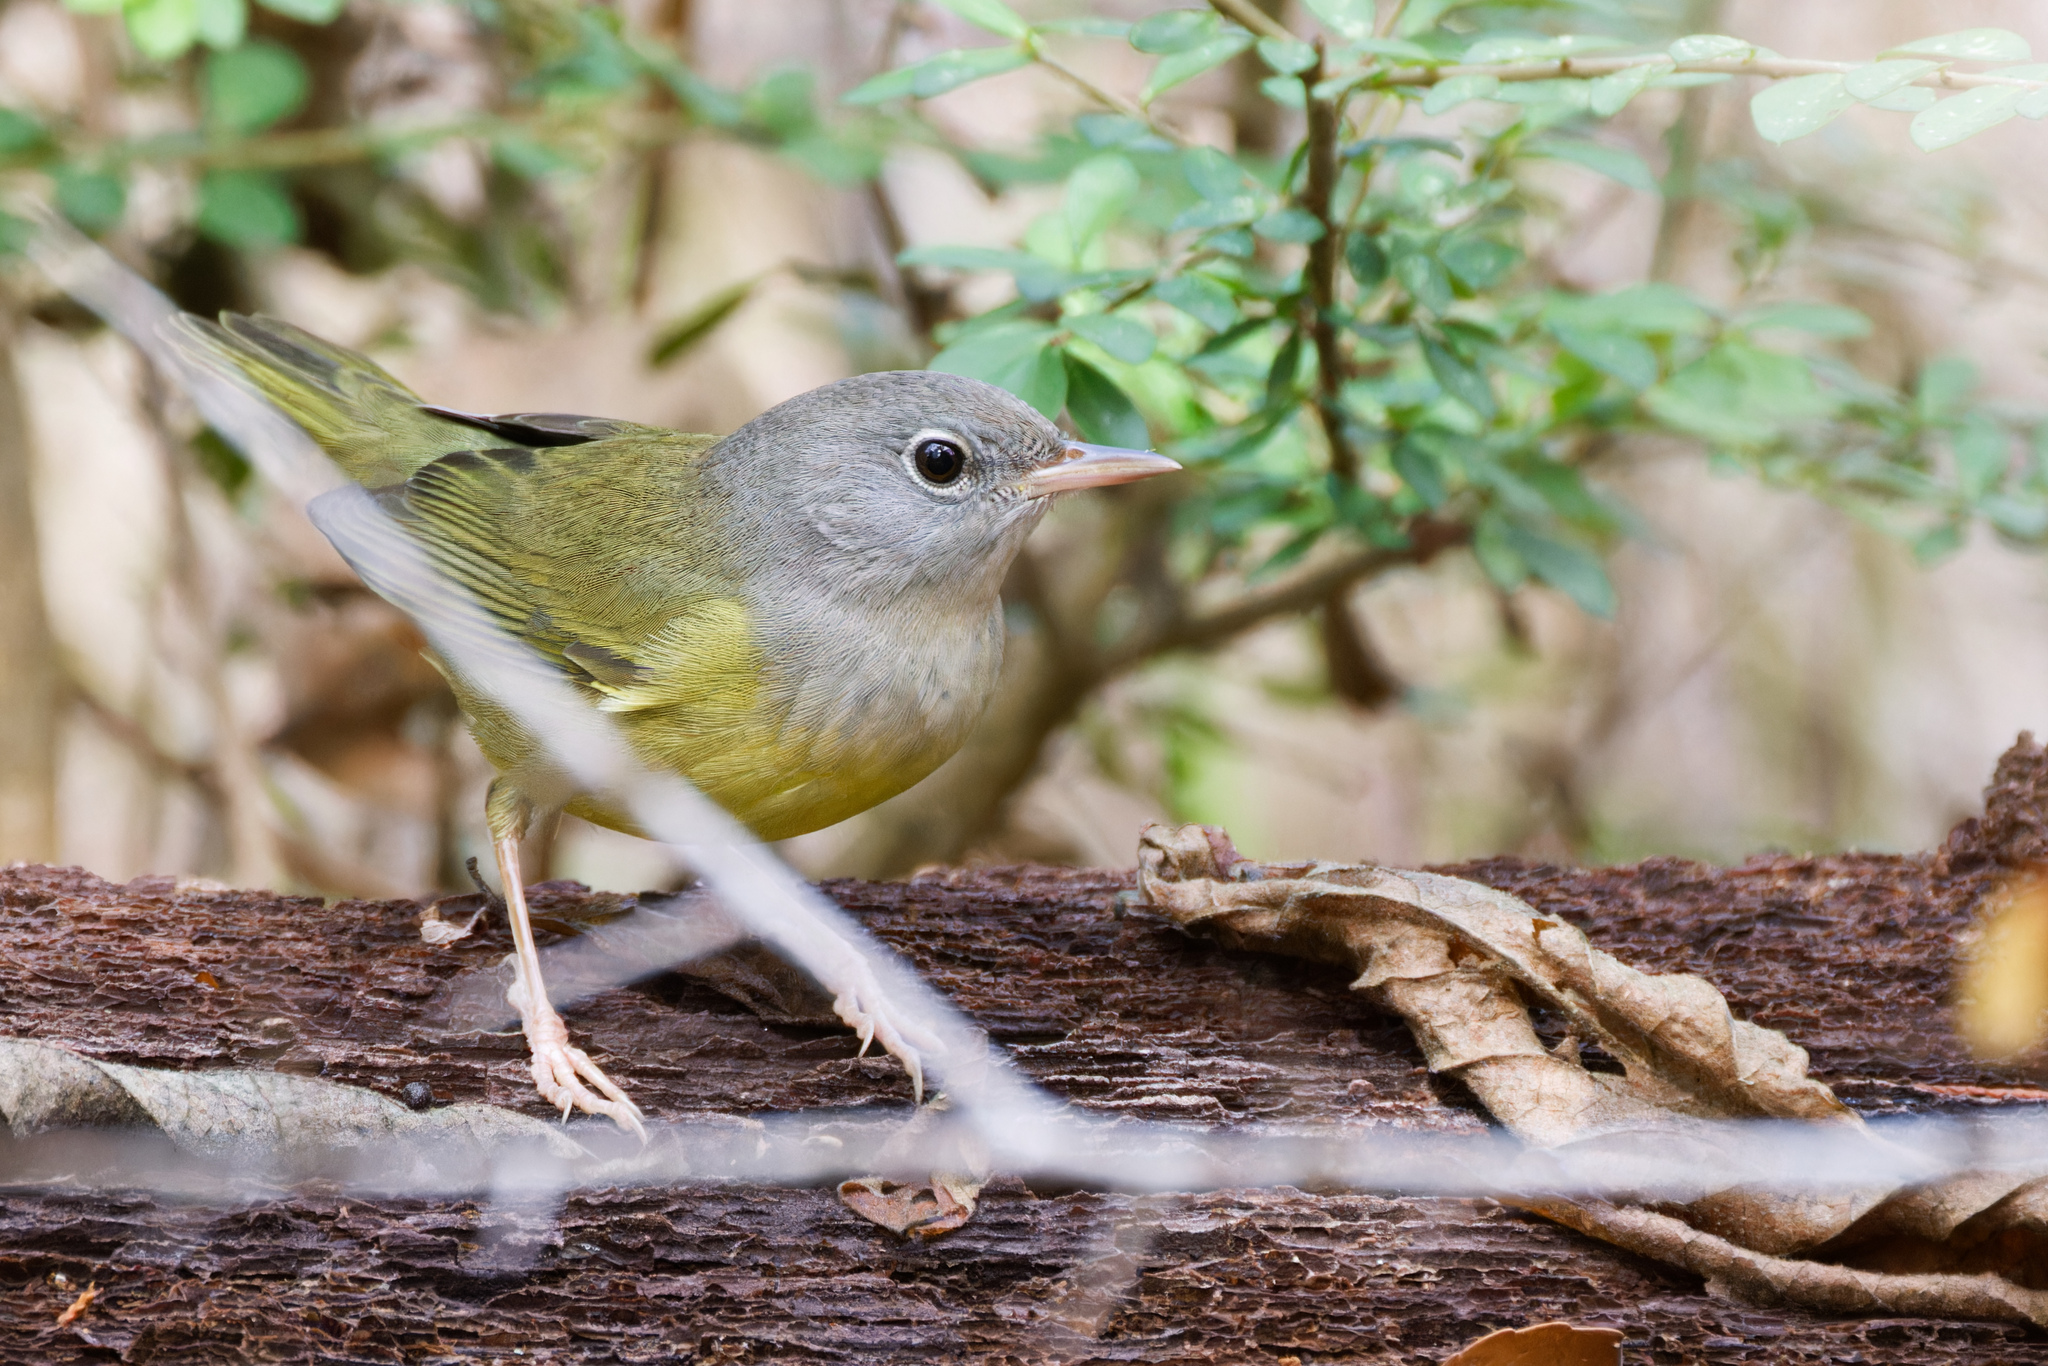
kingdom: Animalia
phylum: Chordata
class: Aves
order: Passeriformes
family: Parulidae
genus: Geothlypis
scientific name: Geothlypis philadelphia
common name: Mourning warbler
